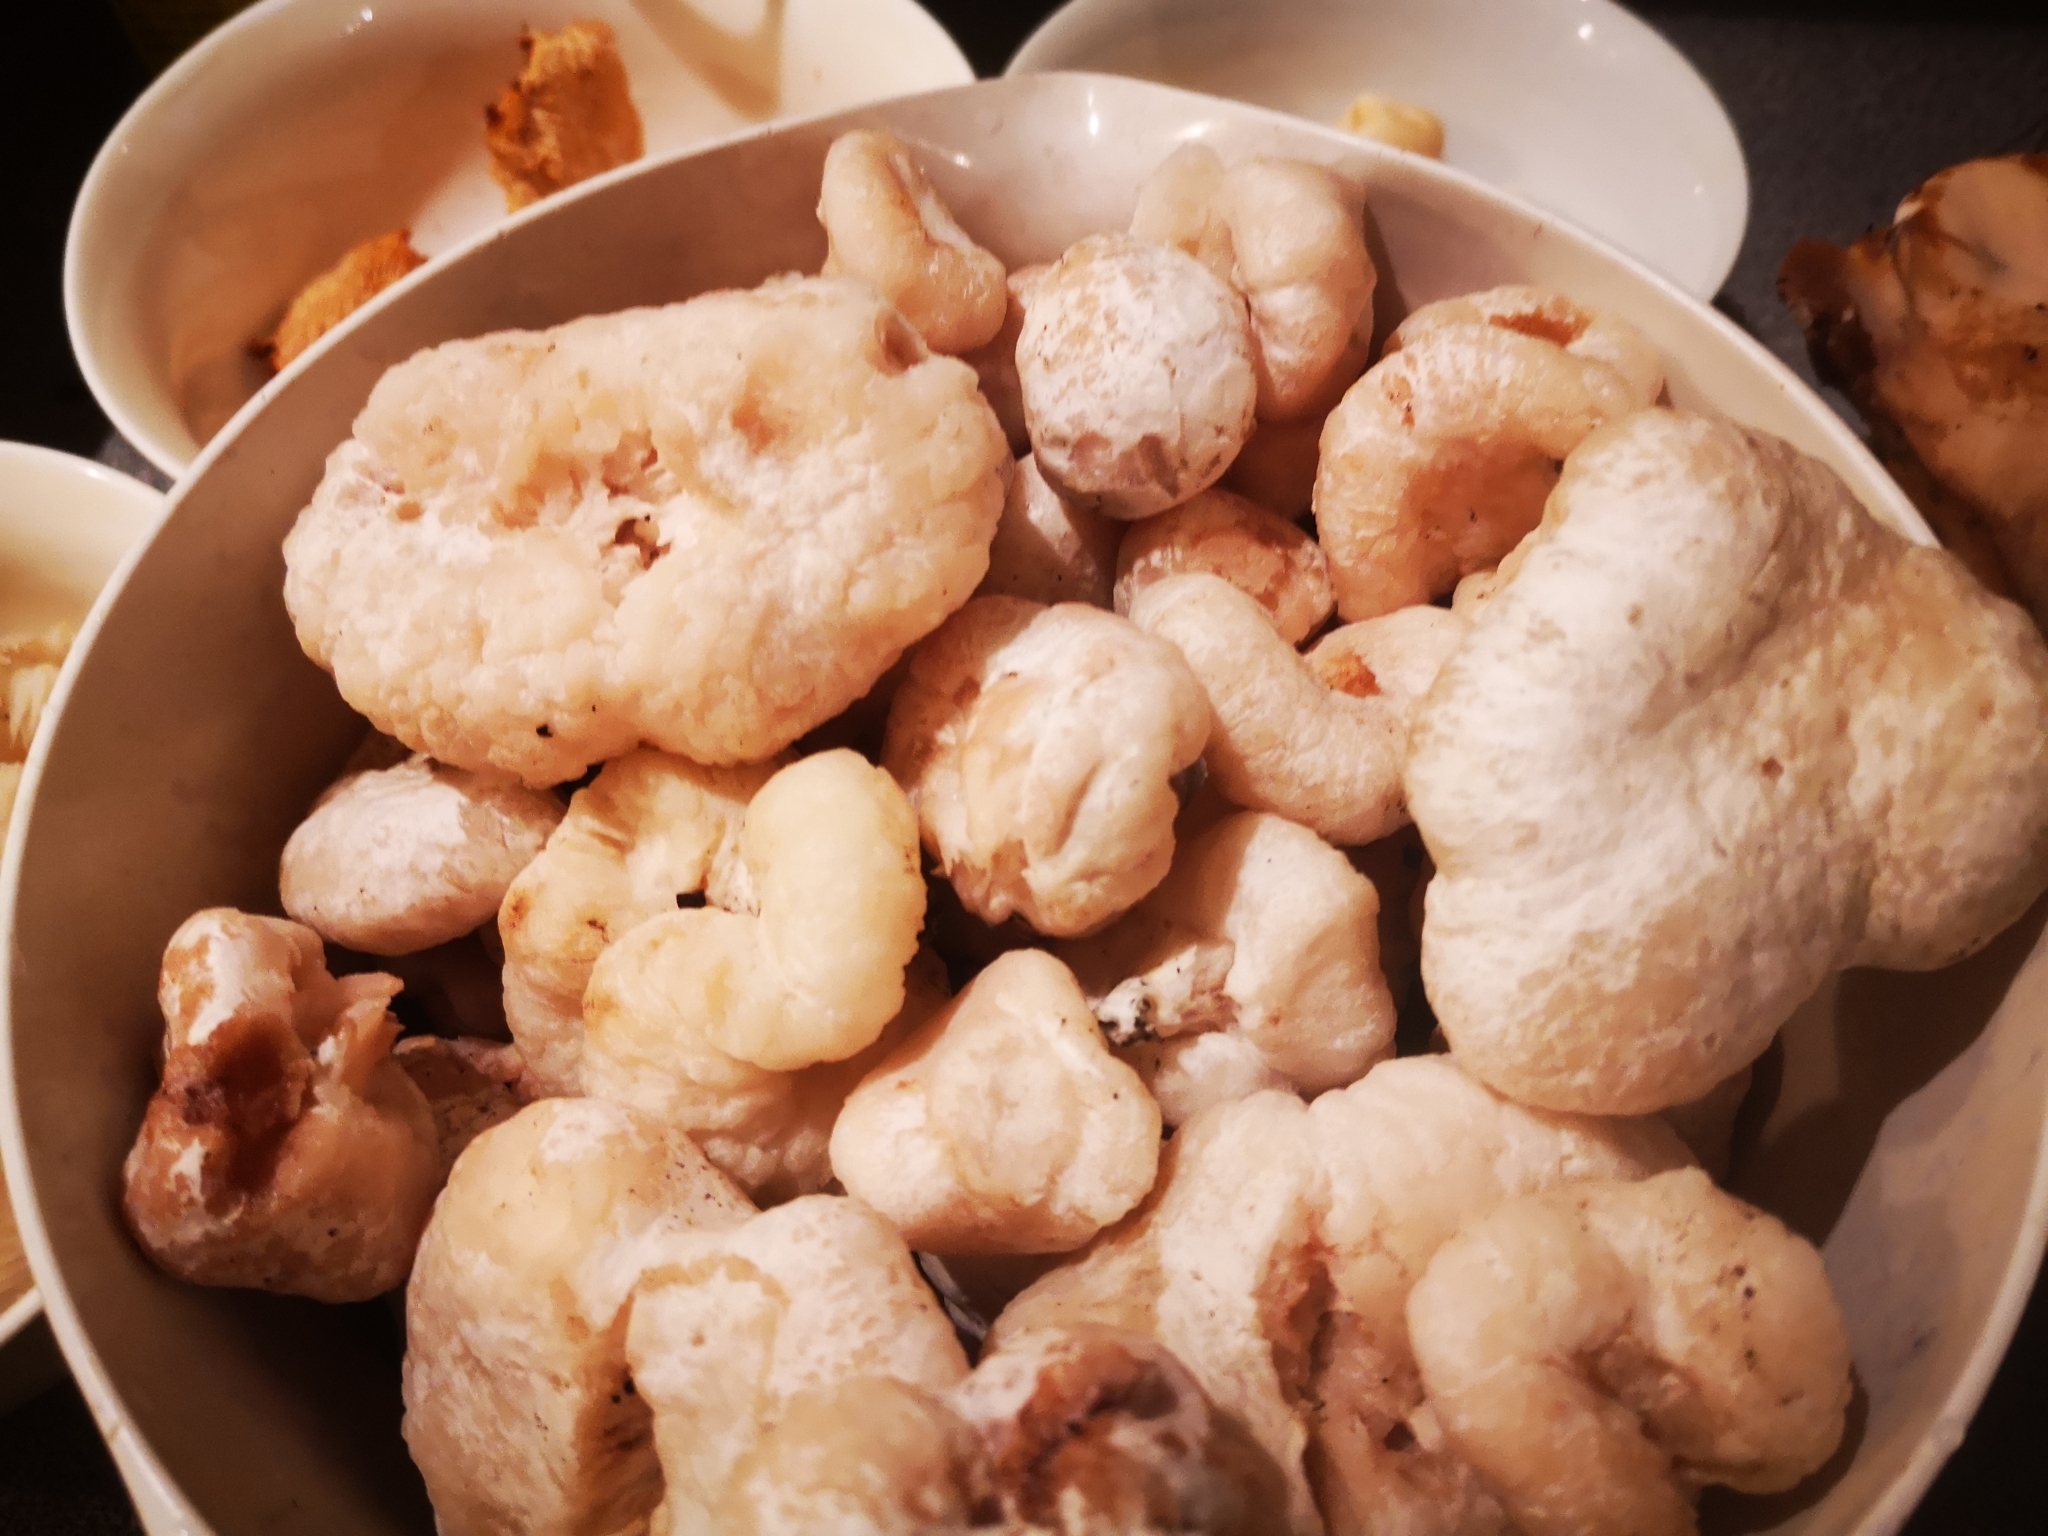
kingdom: Fungi
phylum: Basidiomycota
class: Agaricomycetes
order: Agaricales
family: Entolomataceae
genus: Entoloma
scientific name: Entoloma abortivum
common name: Aborted entoloma
